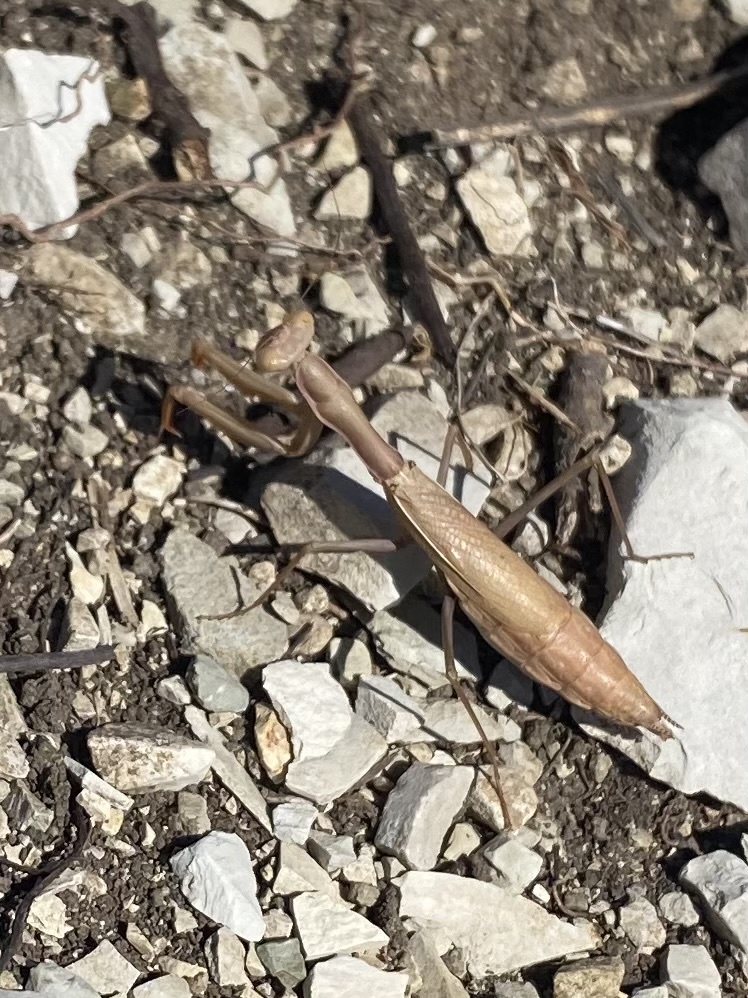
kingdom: Animalia
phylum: Arthropoda
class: Insecta
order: Mantodea
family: Eremiaphilidae
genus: Iris
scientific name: Iris polystictica
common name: Dot-winged mantis
